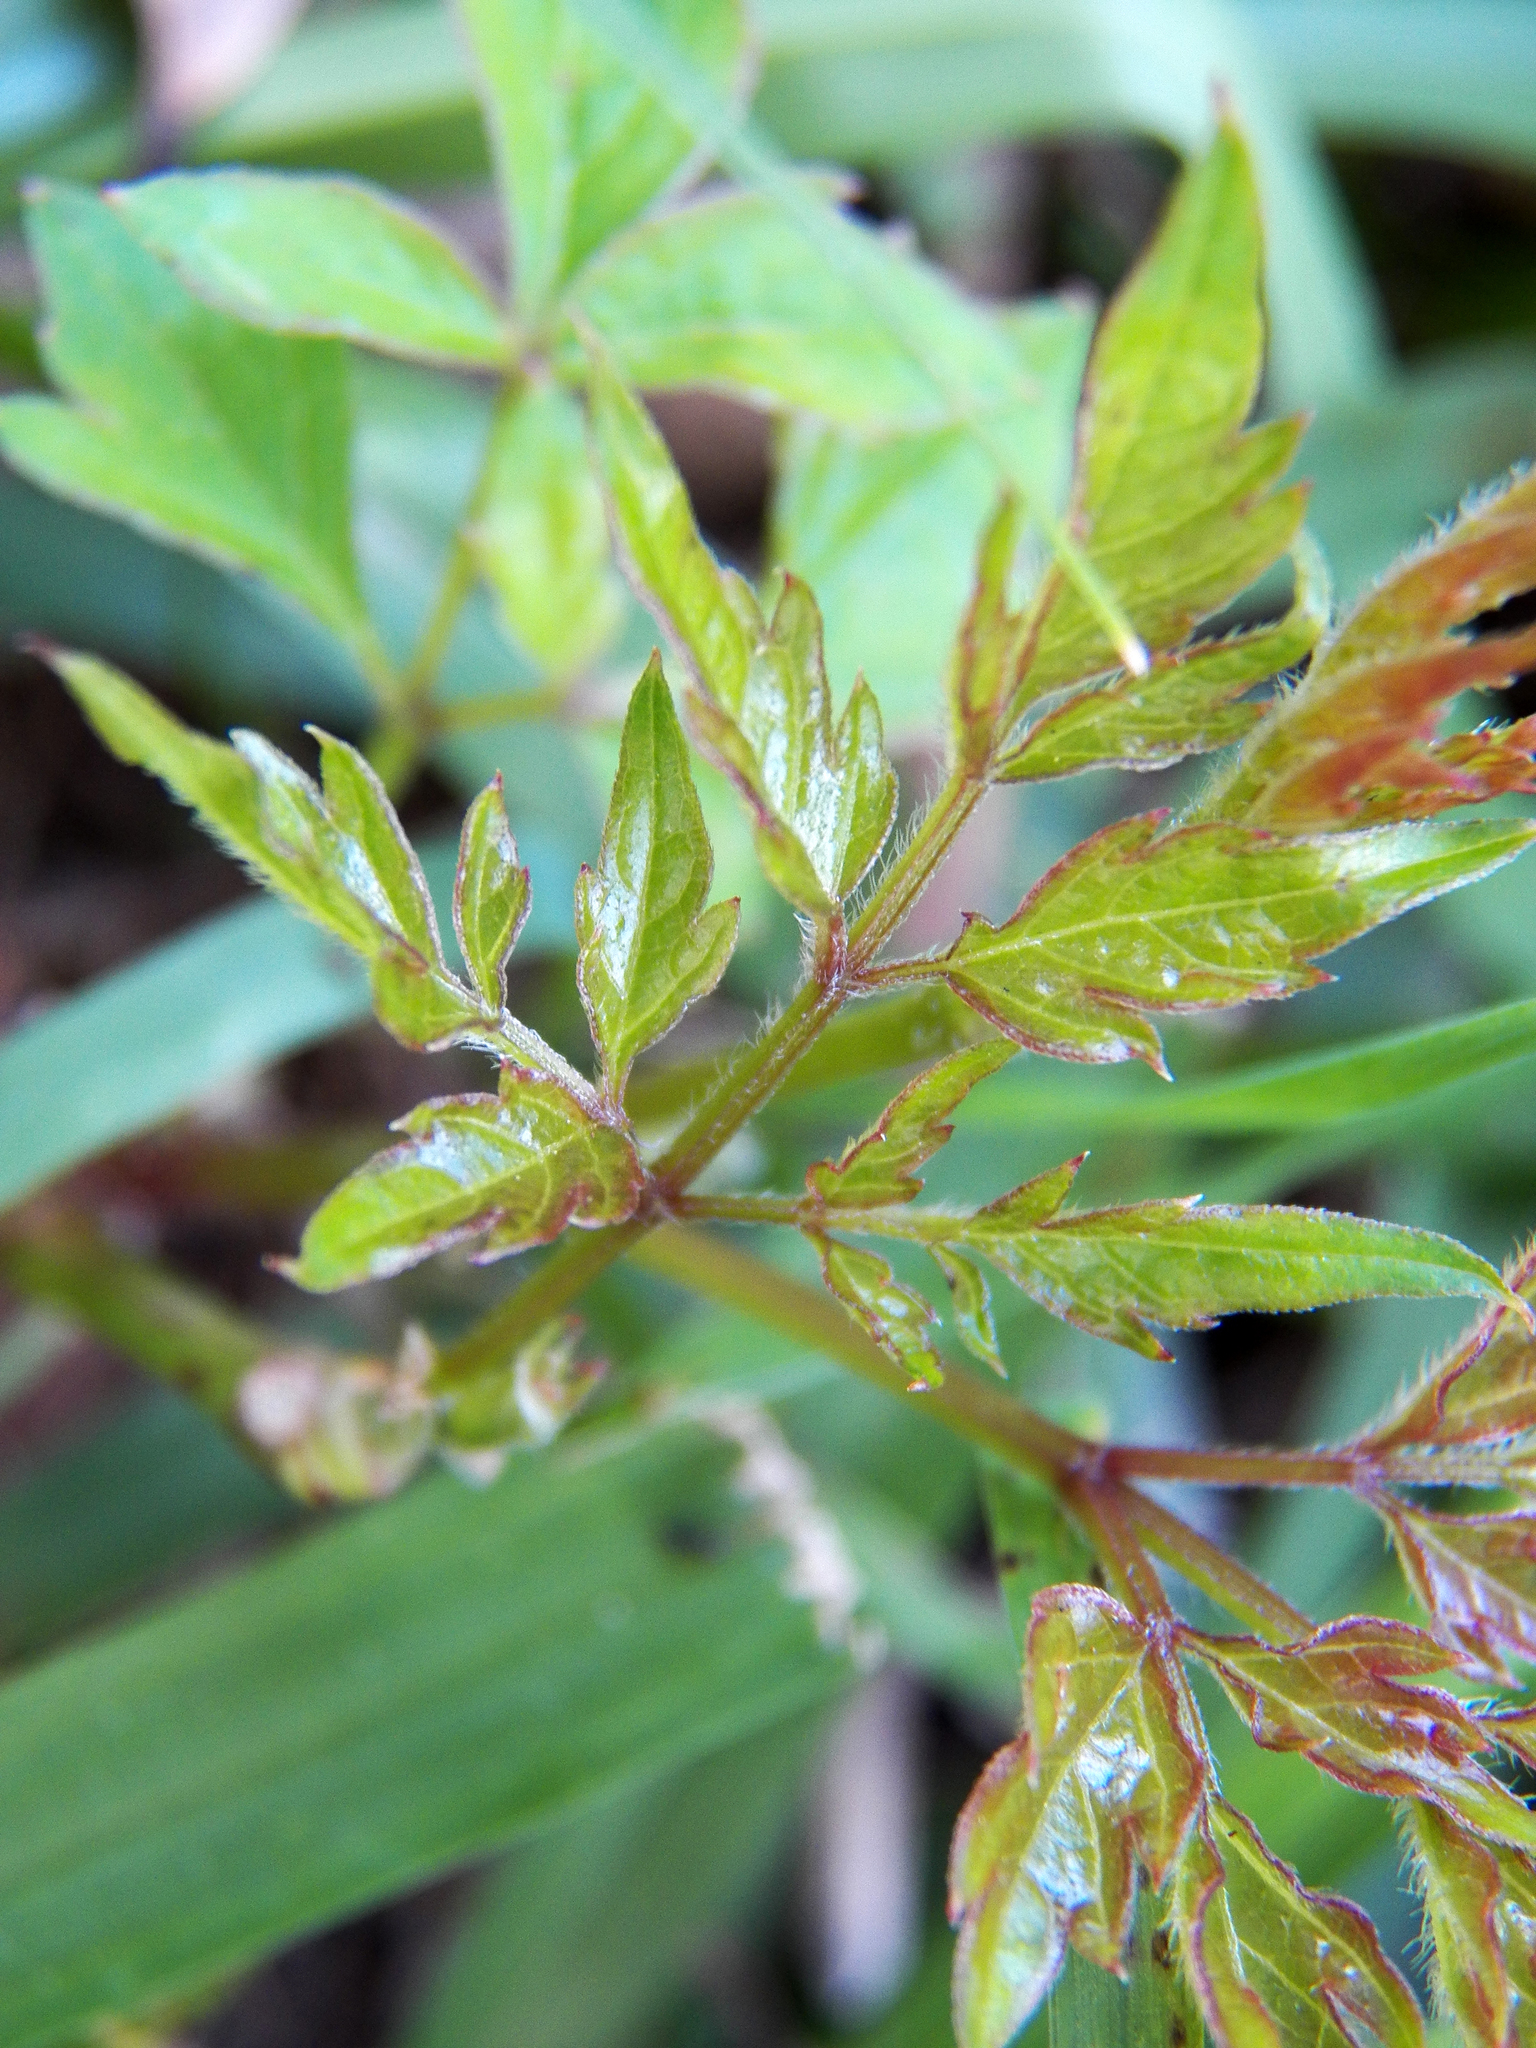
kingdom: Plantae
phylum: Tracheophyta
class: Magnoliopsida
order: Vitales
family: Vitaceae
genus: Nekemias
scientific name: Nekemias arborea
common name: Peppervine
